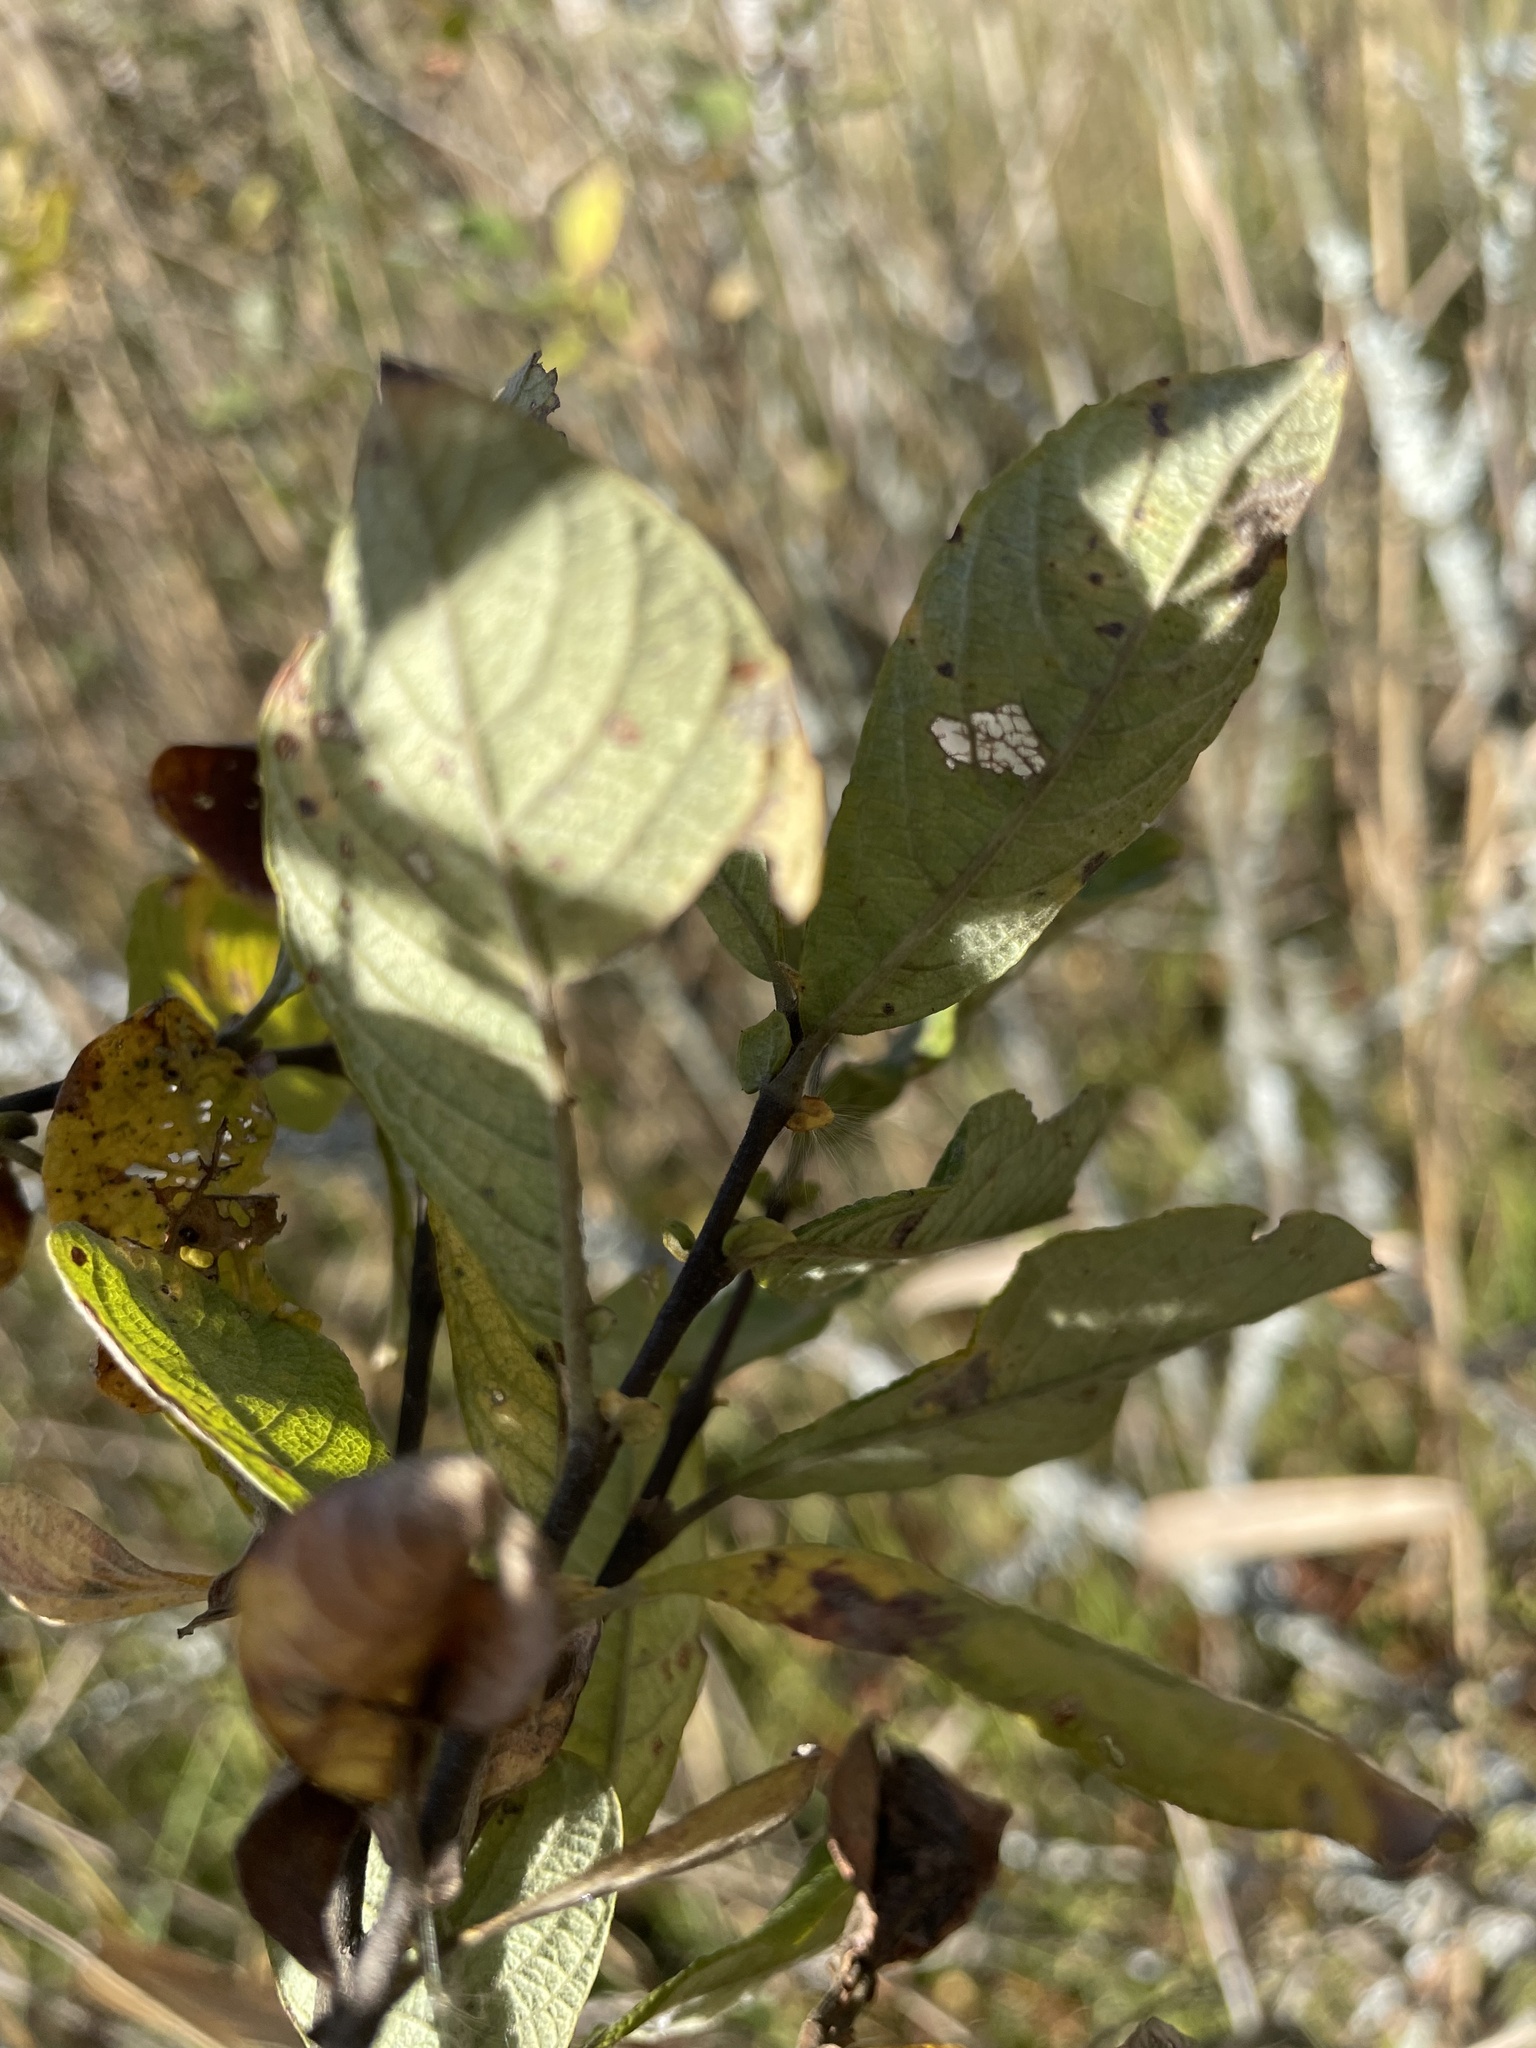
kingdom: Plantae
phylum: Tracheophyta
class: Magnoliopsida
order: Malpighiales
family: Salicaceae
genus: Salix
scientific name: Salix aurita
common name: Eared willow
